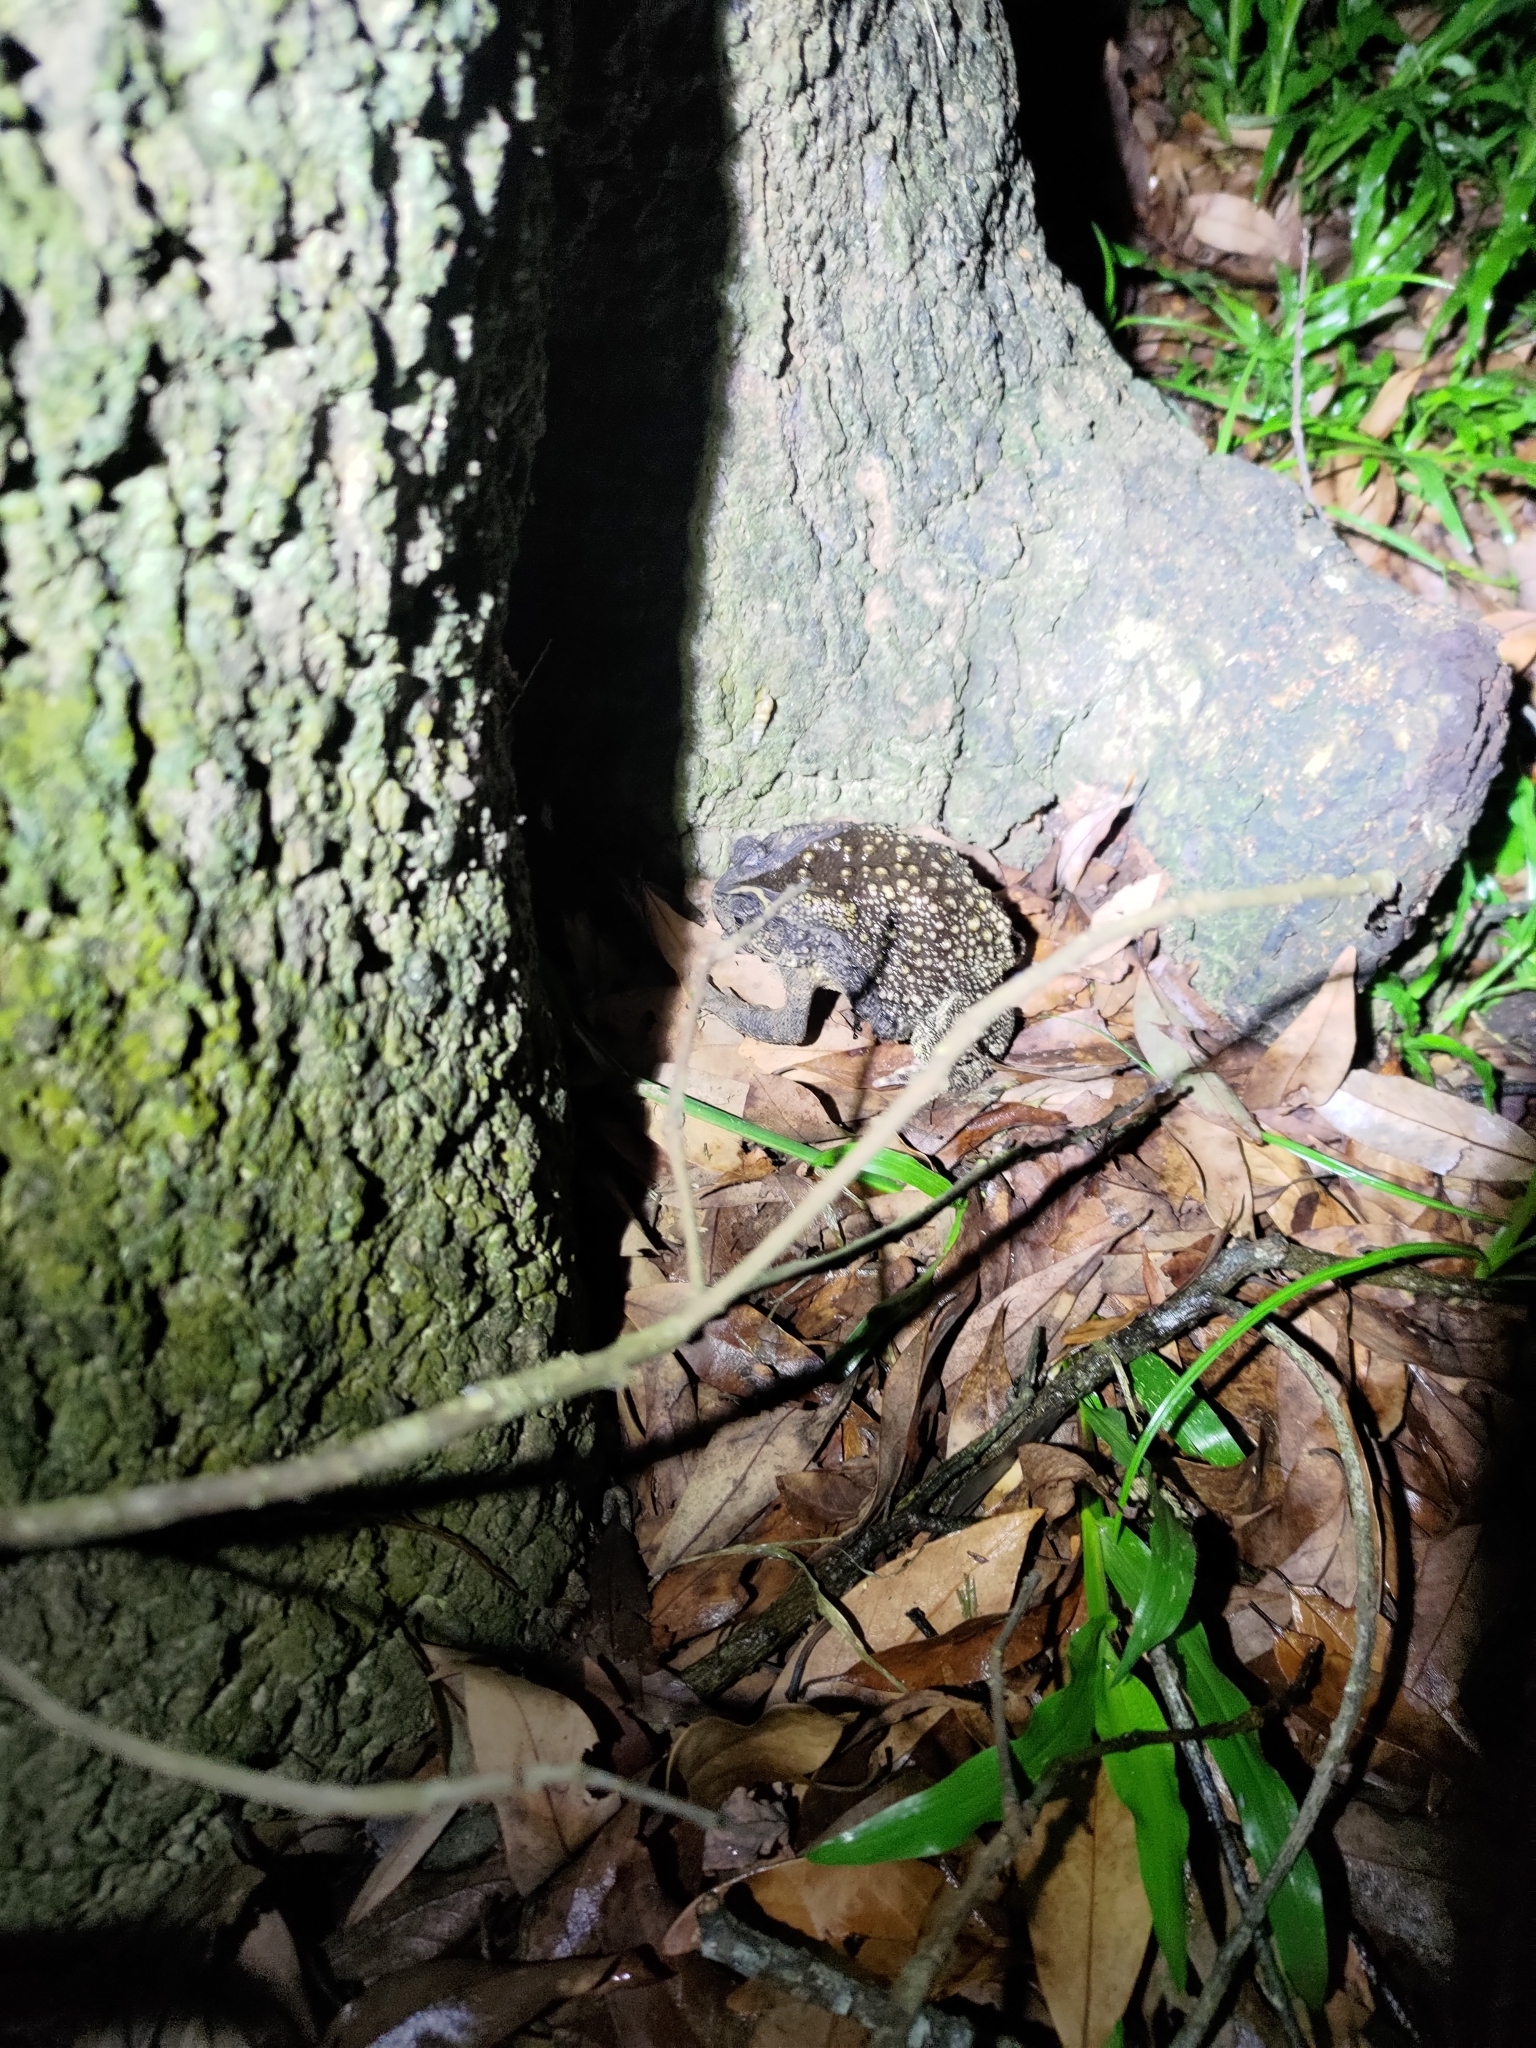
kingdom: Animalia
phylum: Chordata
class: Amphibia
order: Anura
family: Bufonidae
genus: Duttaphrynus
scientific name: Duttaphrynus melanostictus
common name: Common sunda toad
